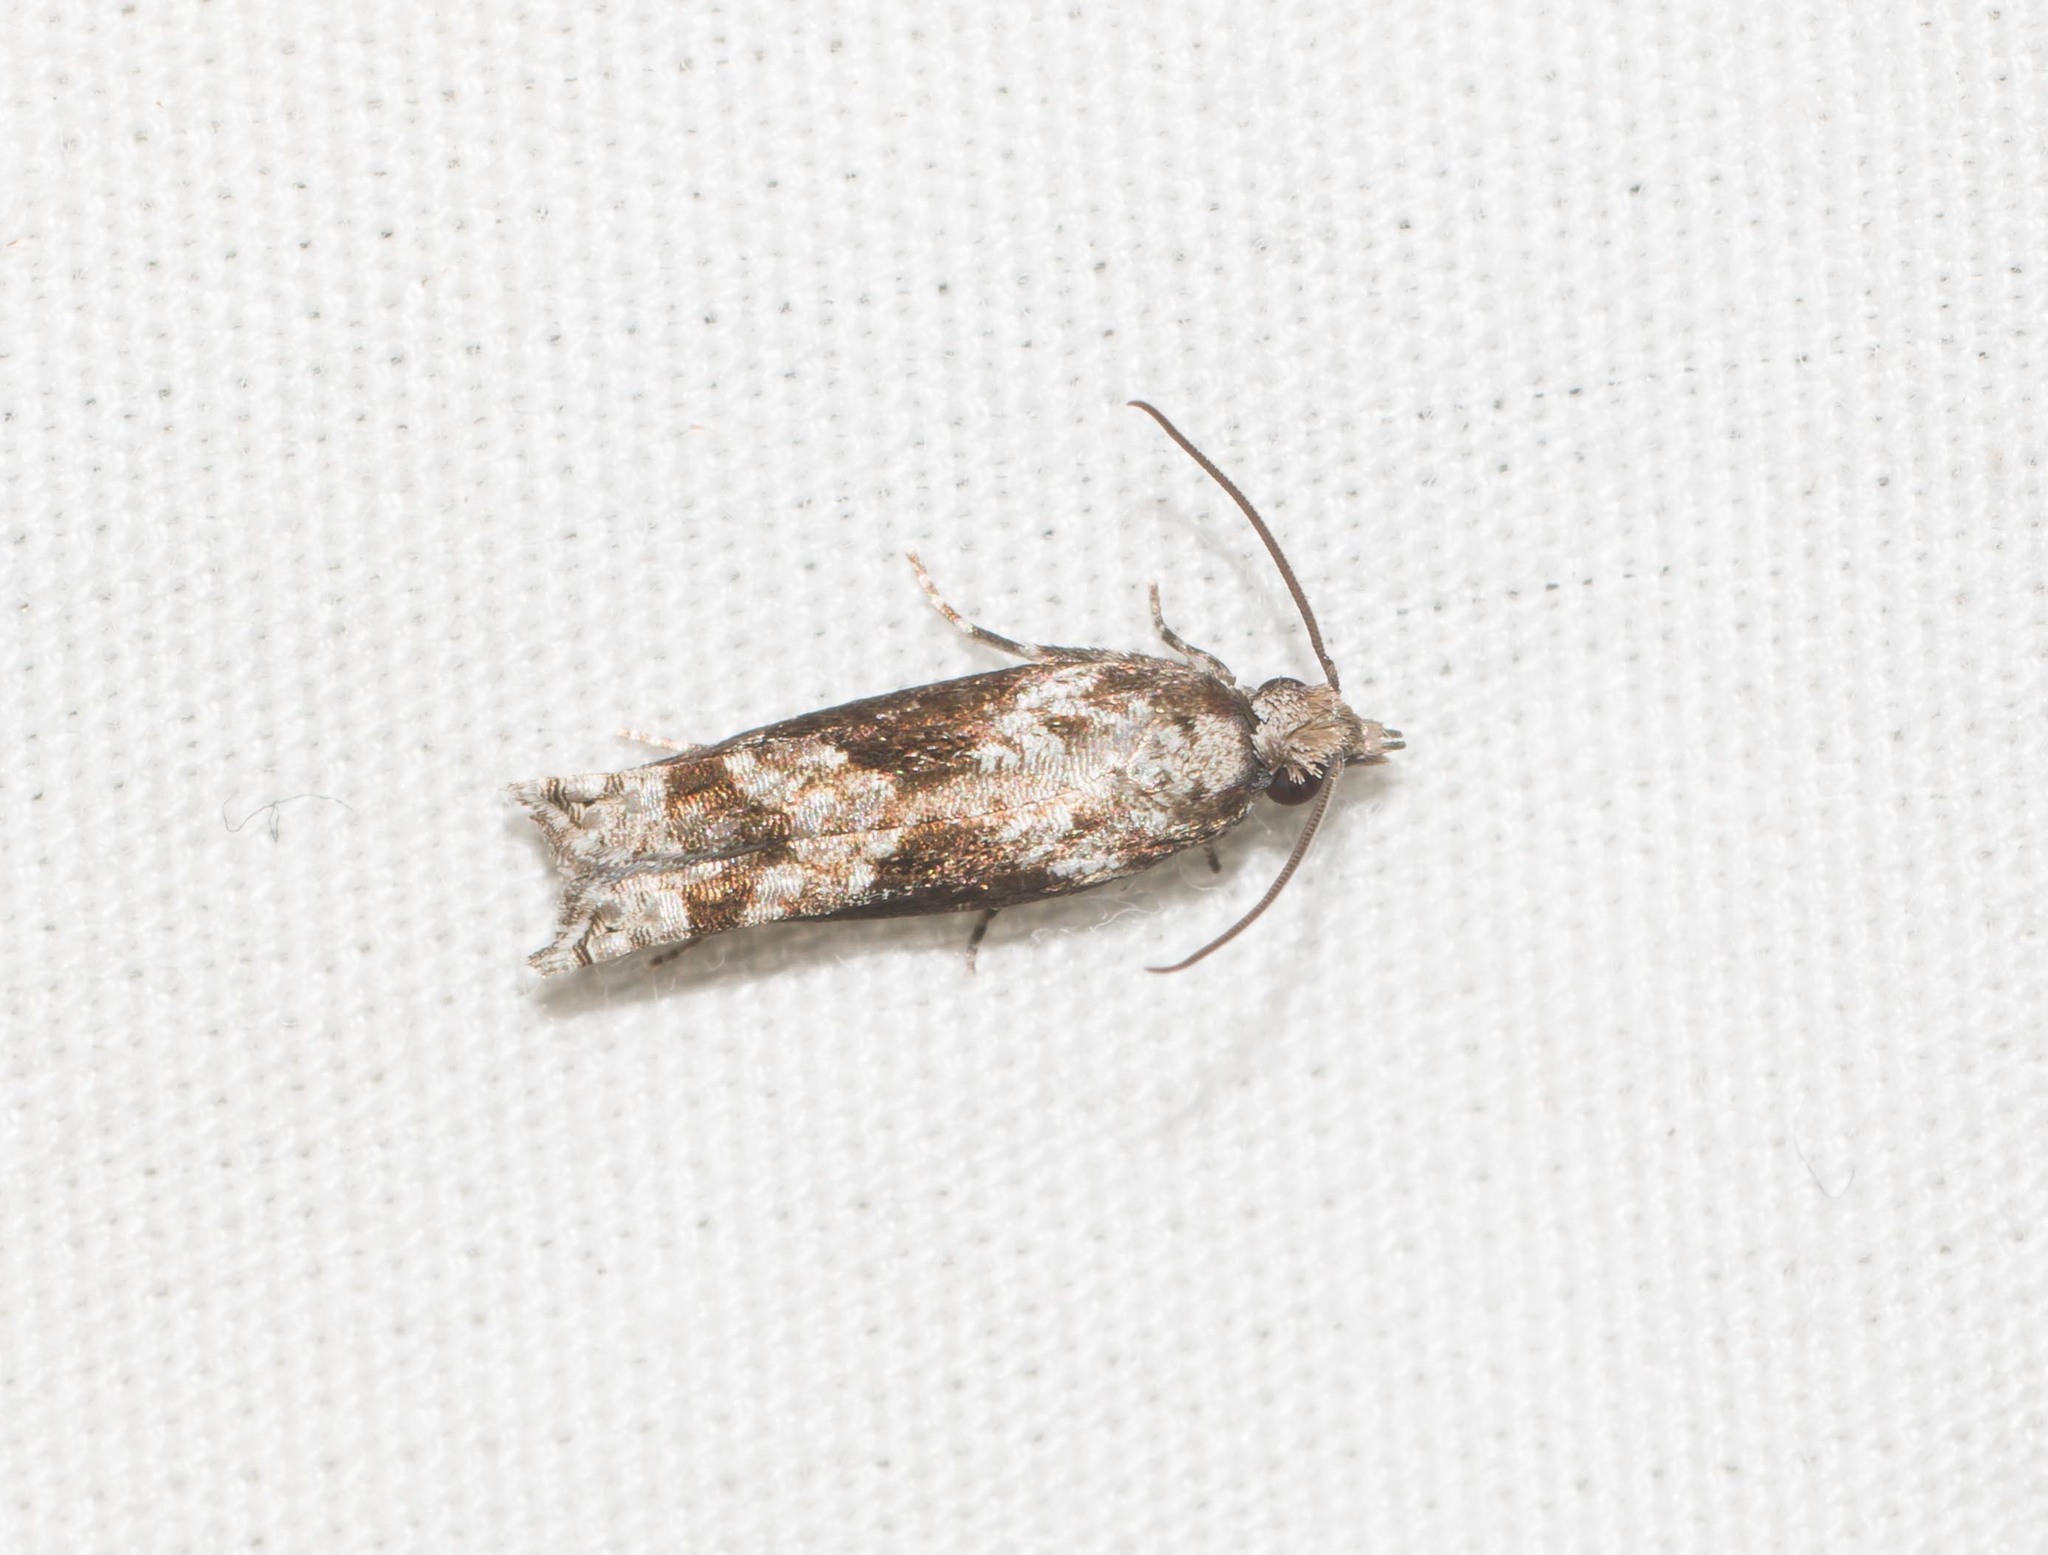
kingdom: Animalia
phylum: Arthropoda
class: Insecta
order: Lepidoptera
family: Tortricidae
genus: Eccoptocera
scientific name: Eccoptocera foetorivorans
